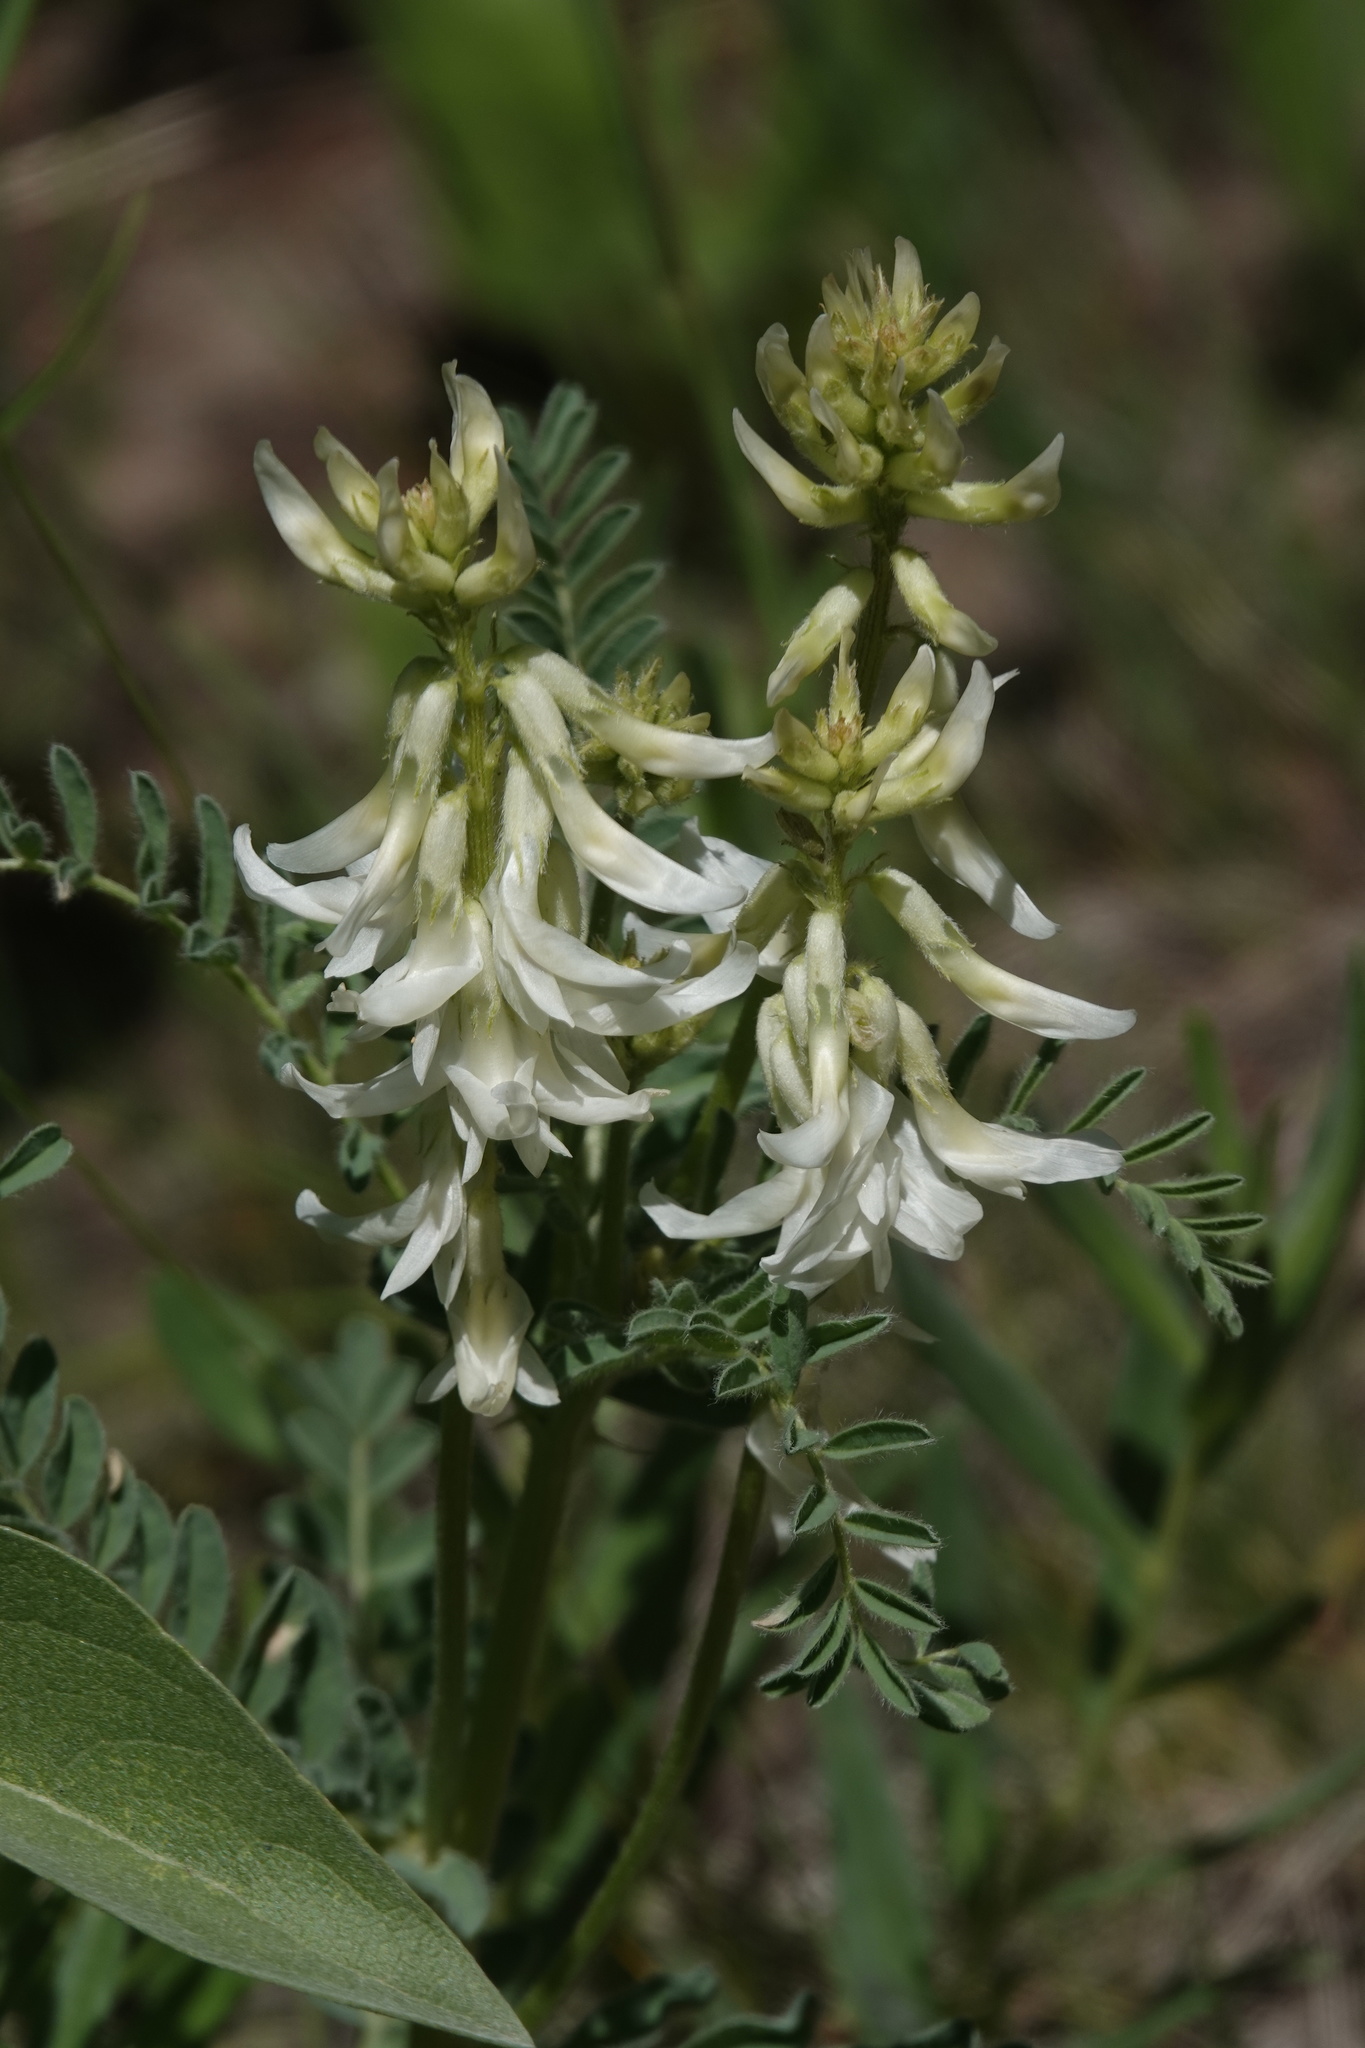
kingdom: Plantae
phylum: Tracheophyta
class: Magnoliopsida
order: Fabales
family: Fabaceae
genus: Astragalus
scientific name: Astragalus drummondii
